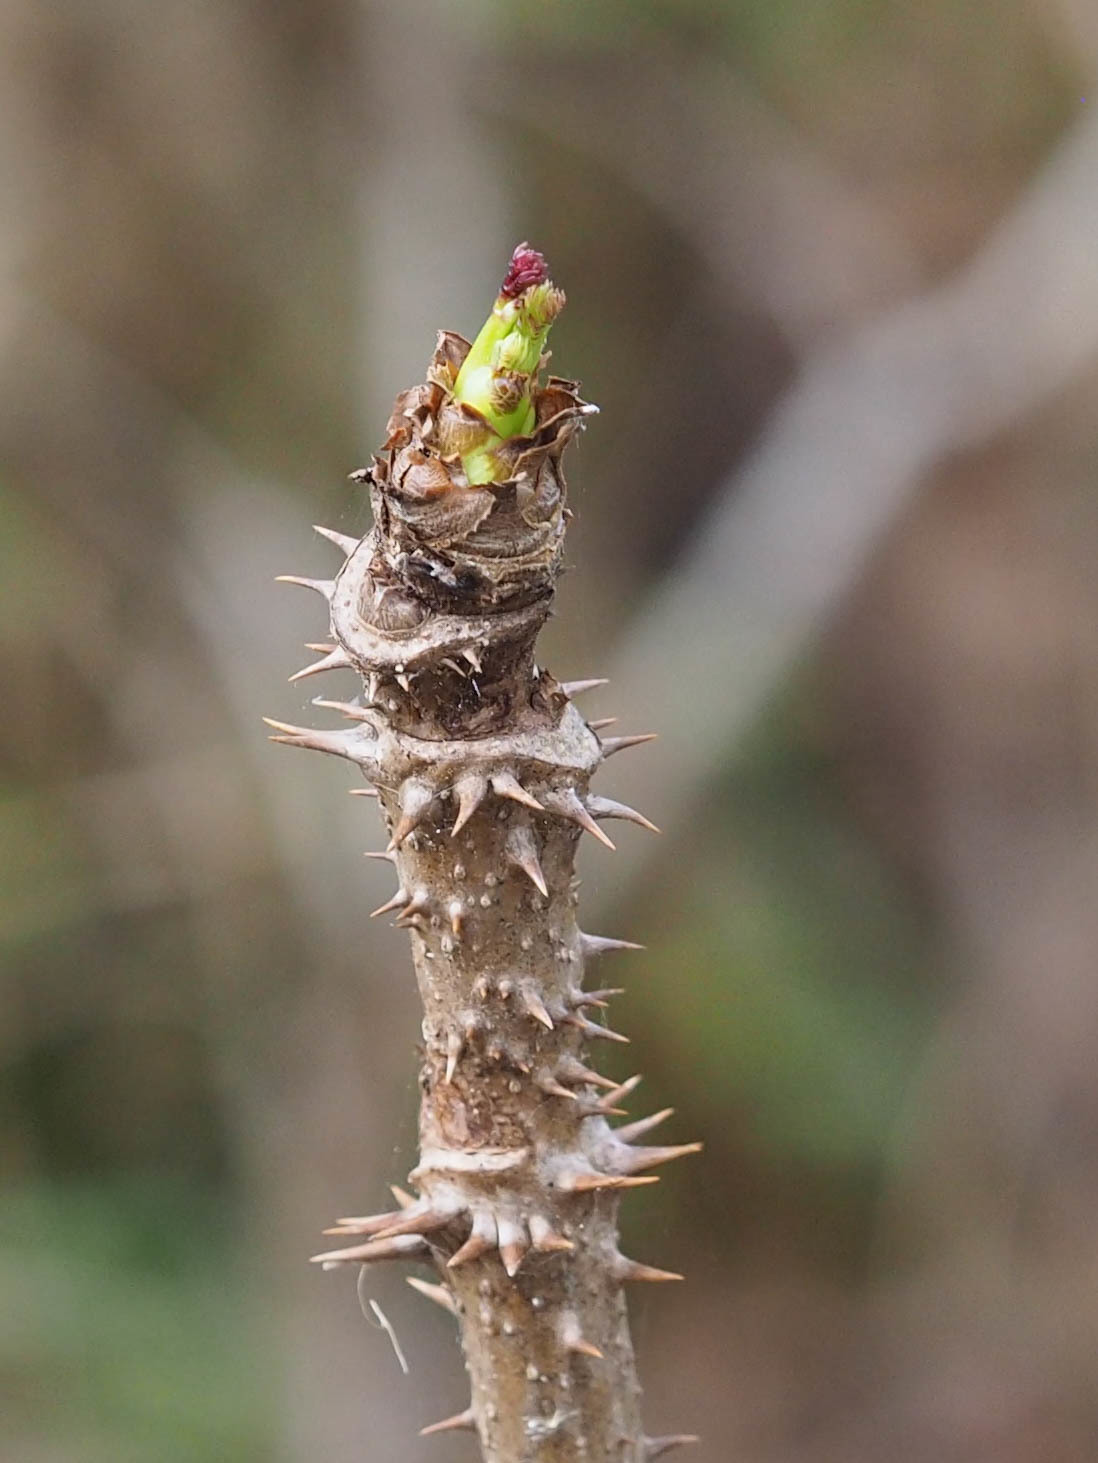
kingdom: Plantae
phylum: Tracheophyta
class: Magnoliopsida
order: Apiales
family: Araliaceae
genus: Aralia
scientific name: Aralia spinosa
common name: Hercules'-club
